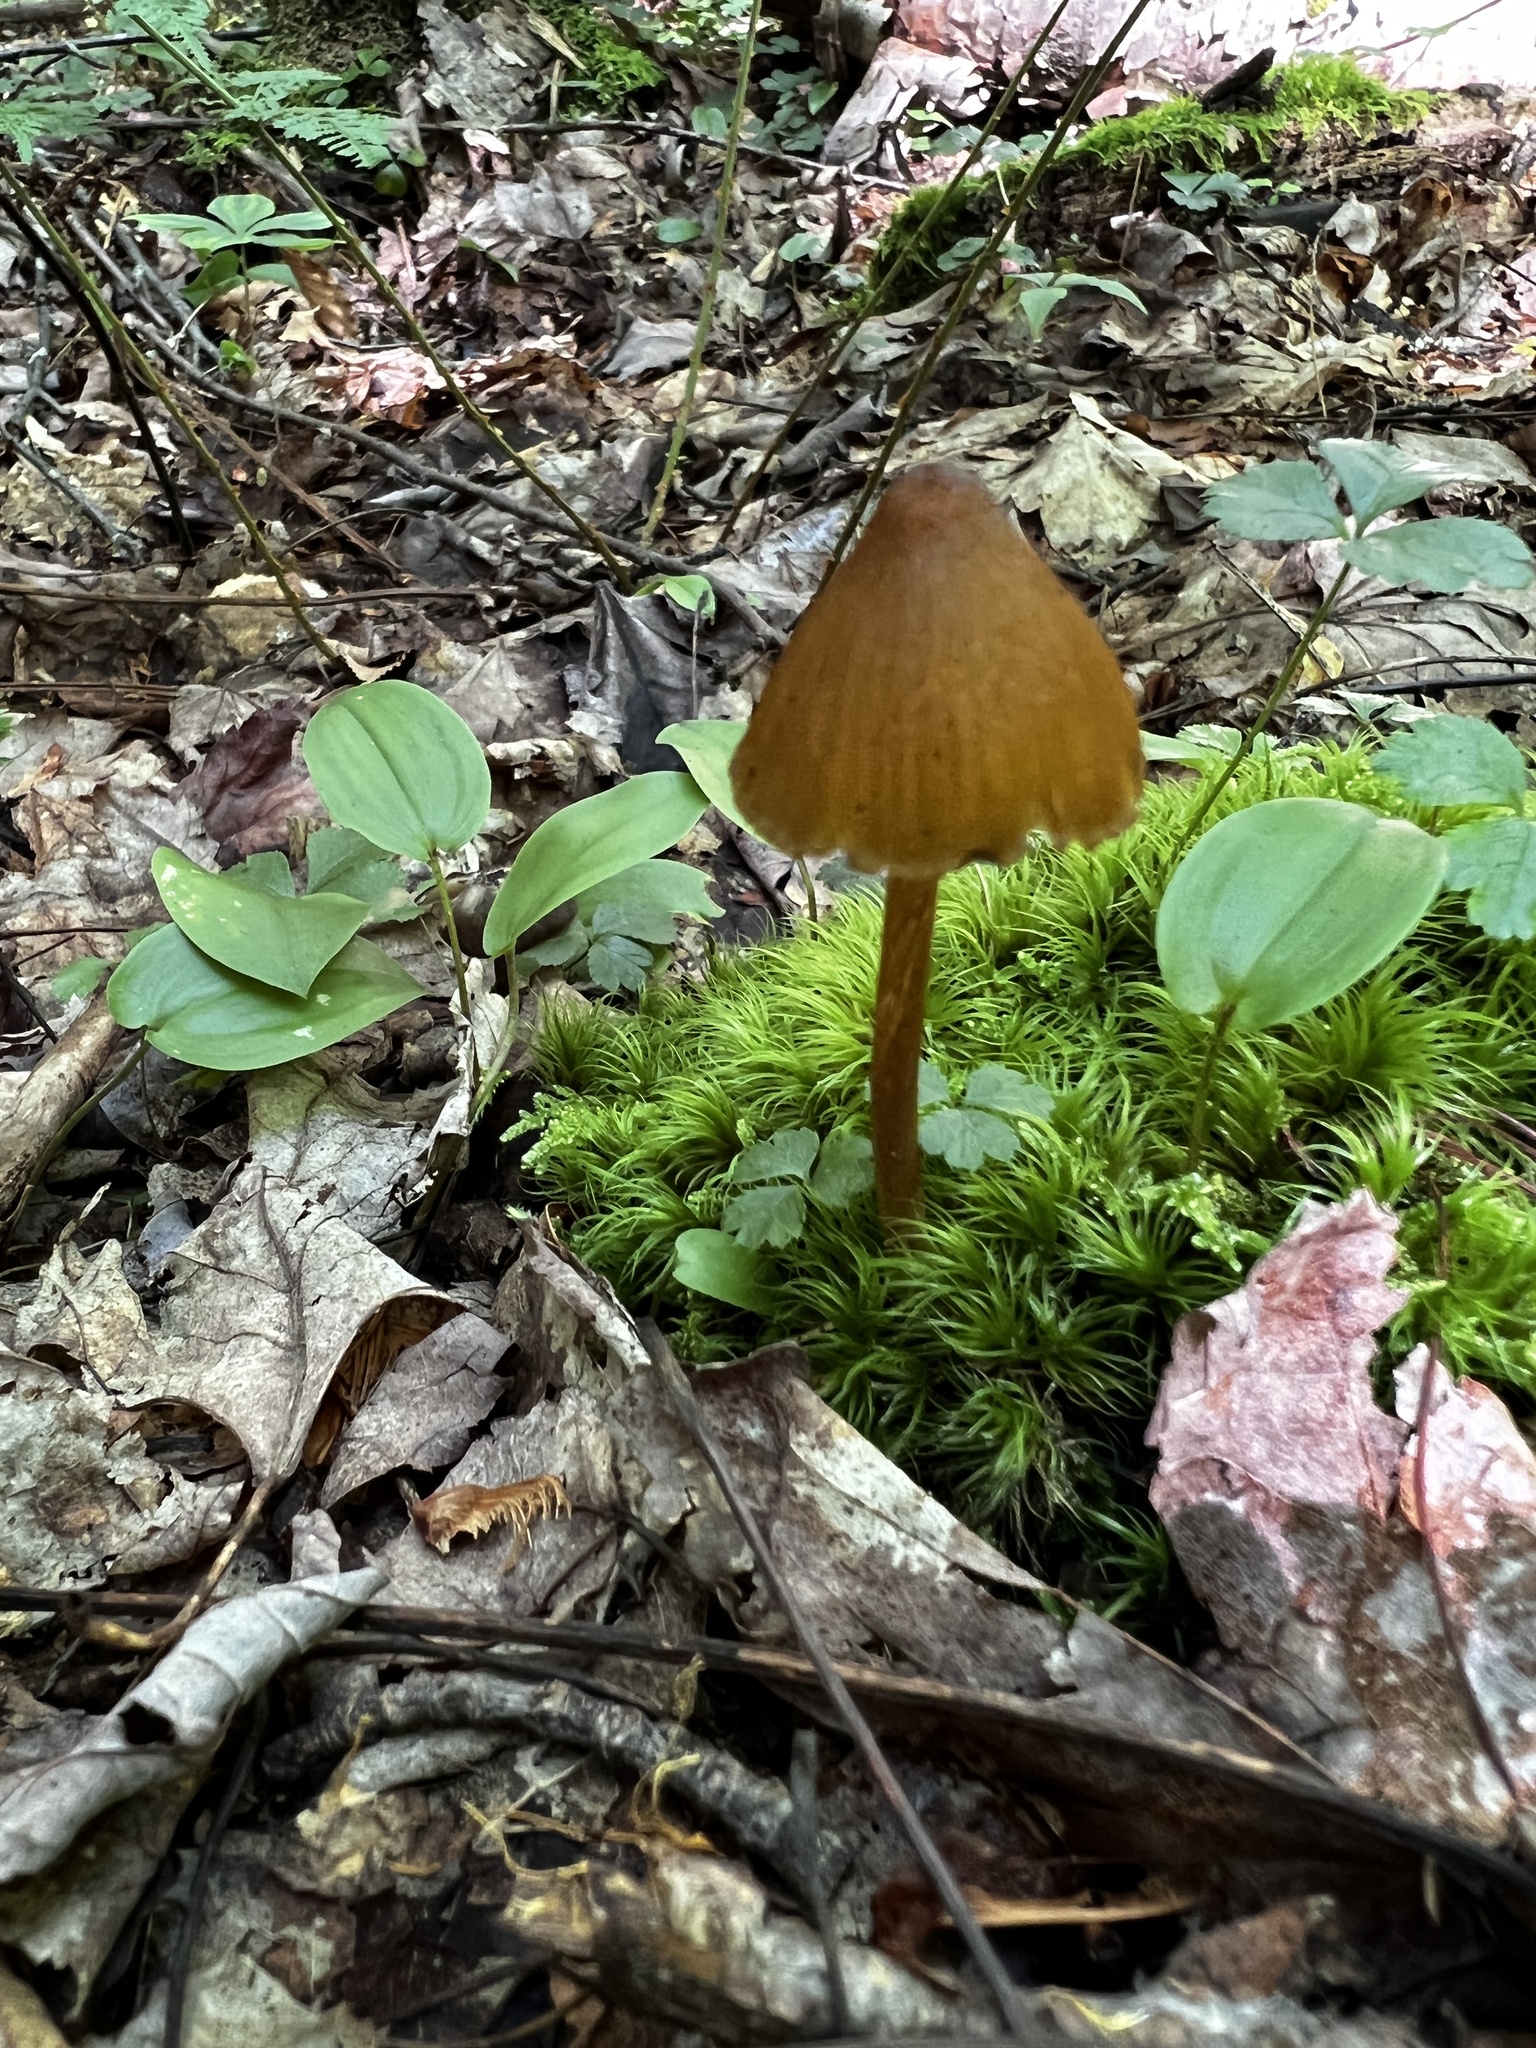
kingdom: Fungi
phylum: Basidiomycota
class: Agaricomycetes
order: Agaricales
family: Entolomataceae
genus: Entoloma
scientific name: Entoloma luteum
